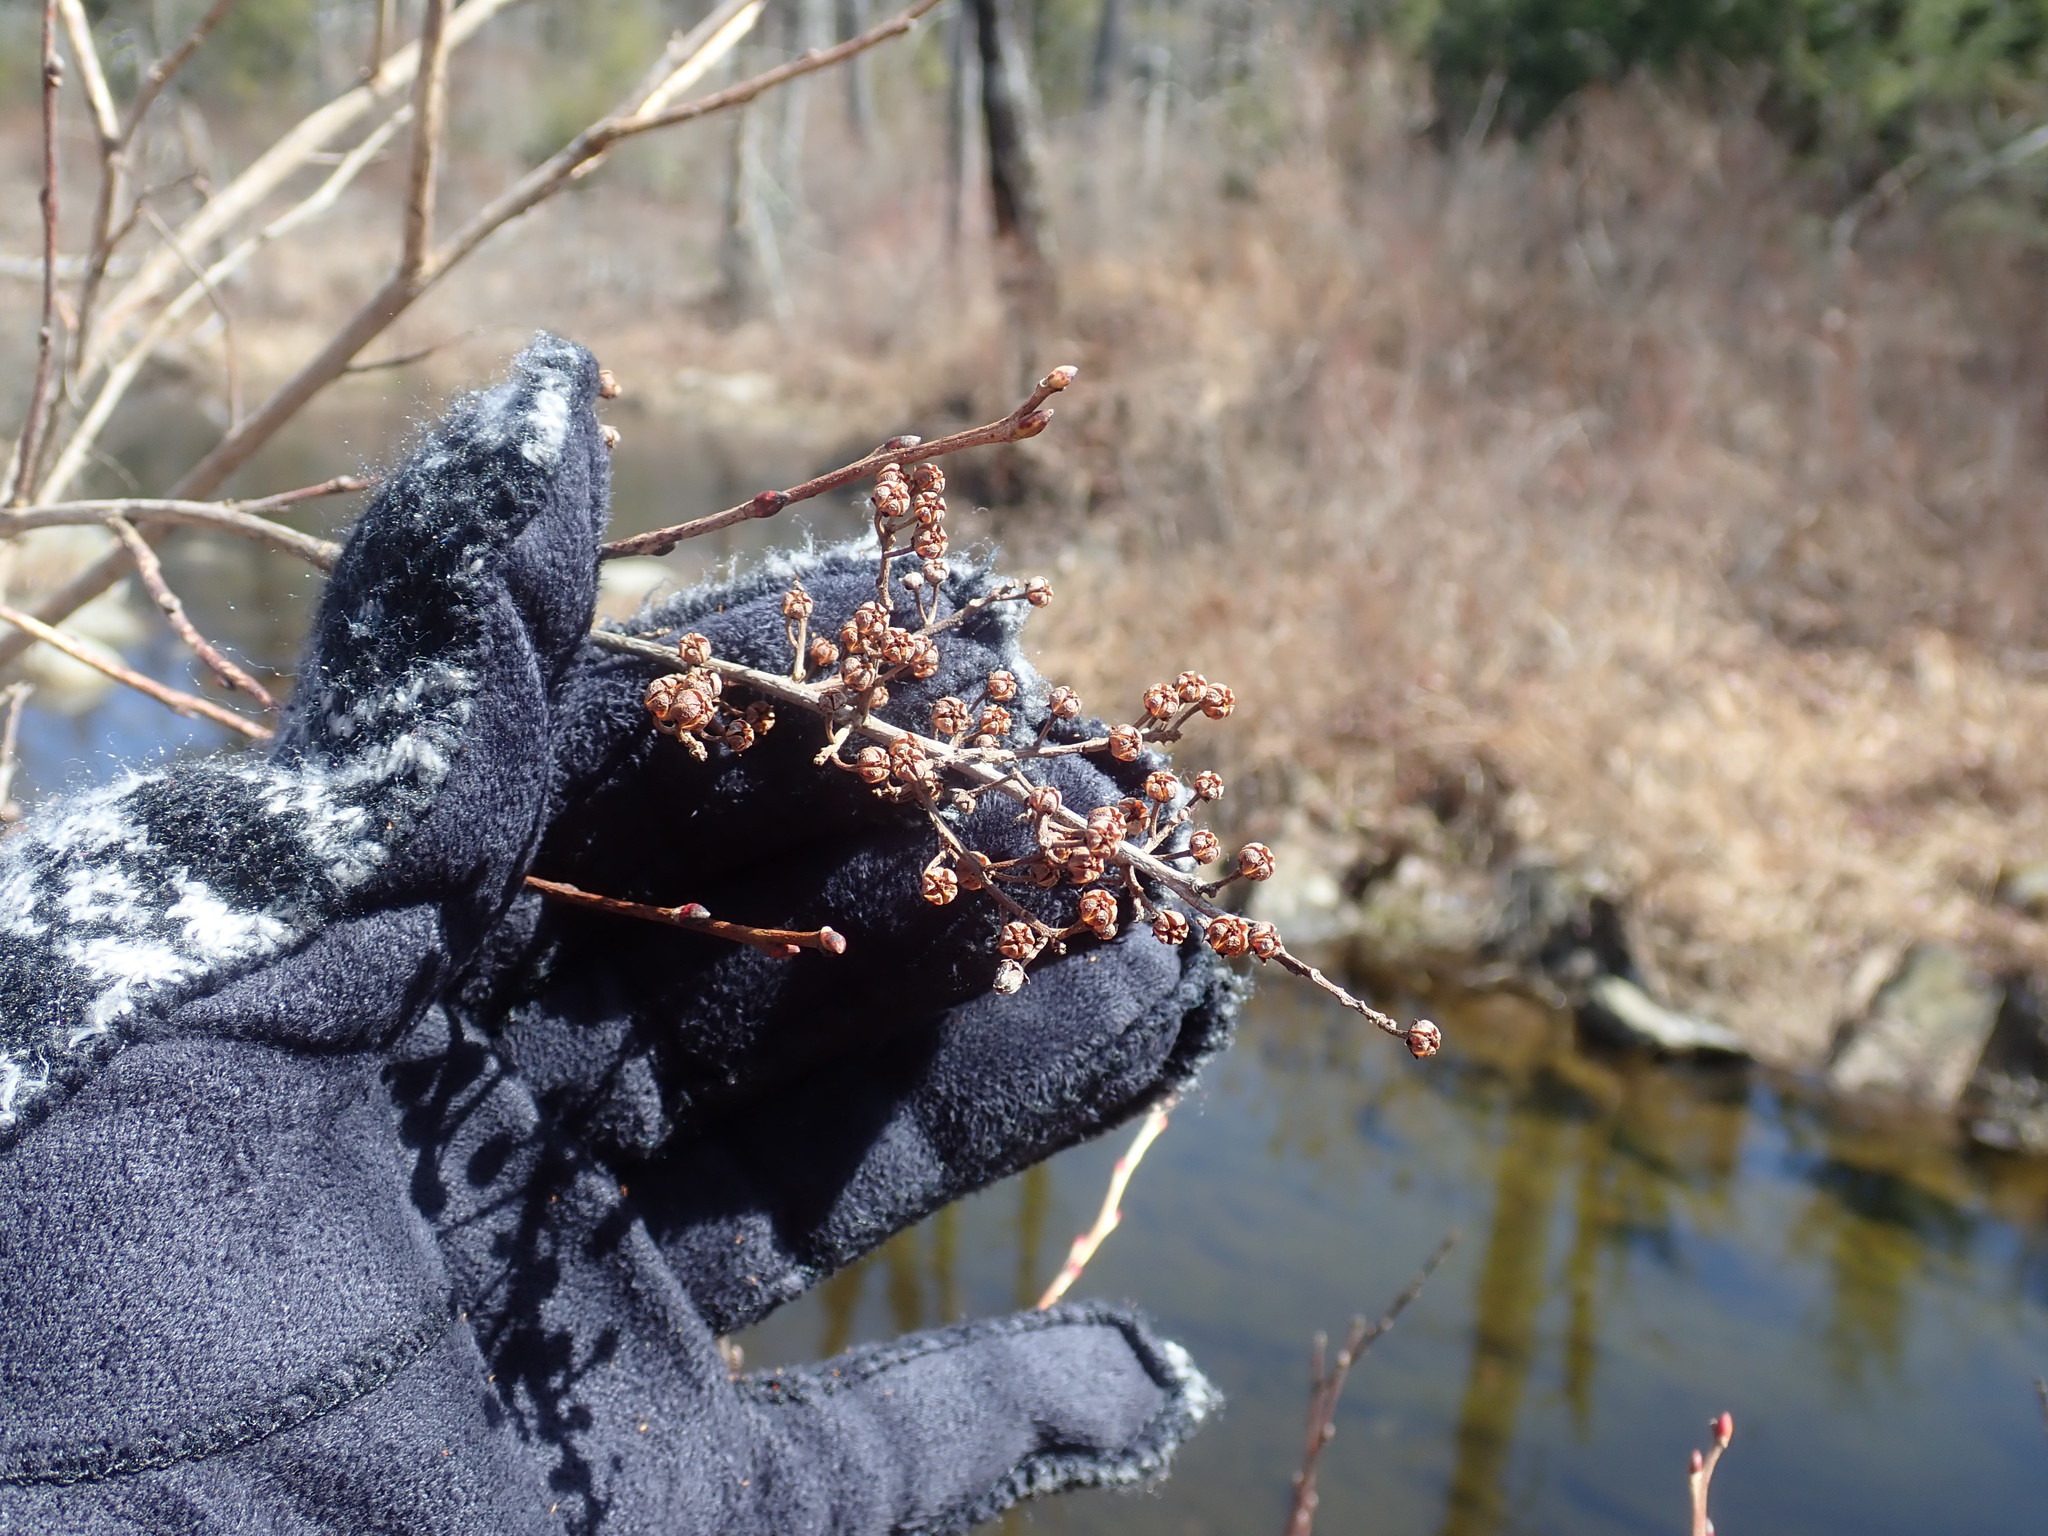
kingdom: Plantae
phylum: Tracheophyta
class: Magnoliopsida
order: Ericales
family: Ericaceae
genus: Lyonia
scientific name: Lyonia ligustrina
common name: Maleberry
